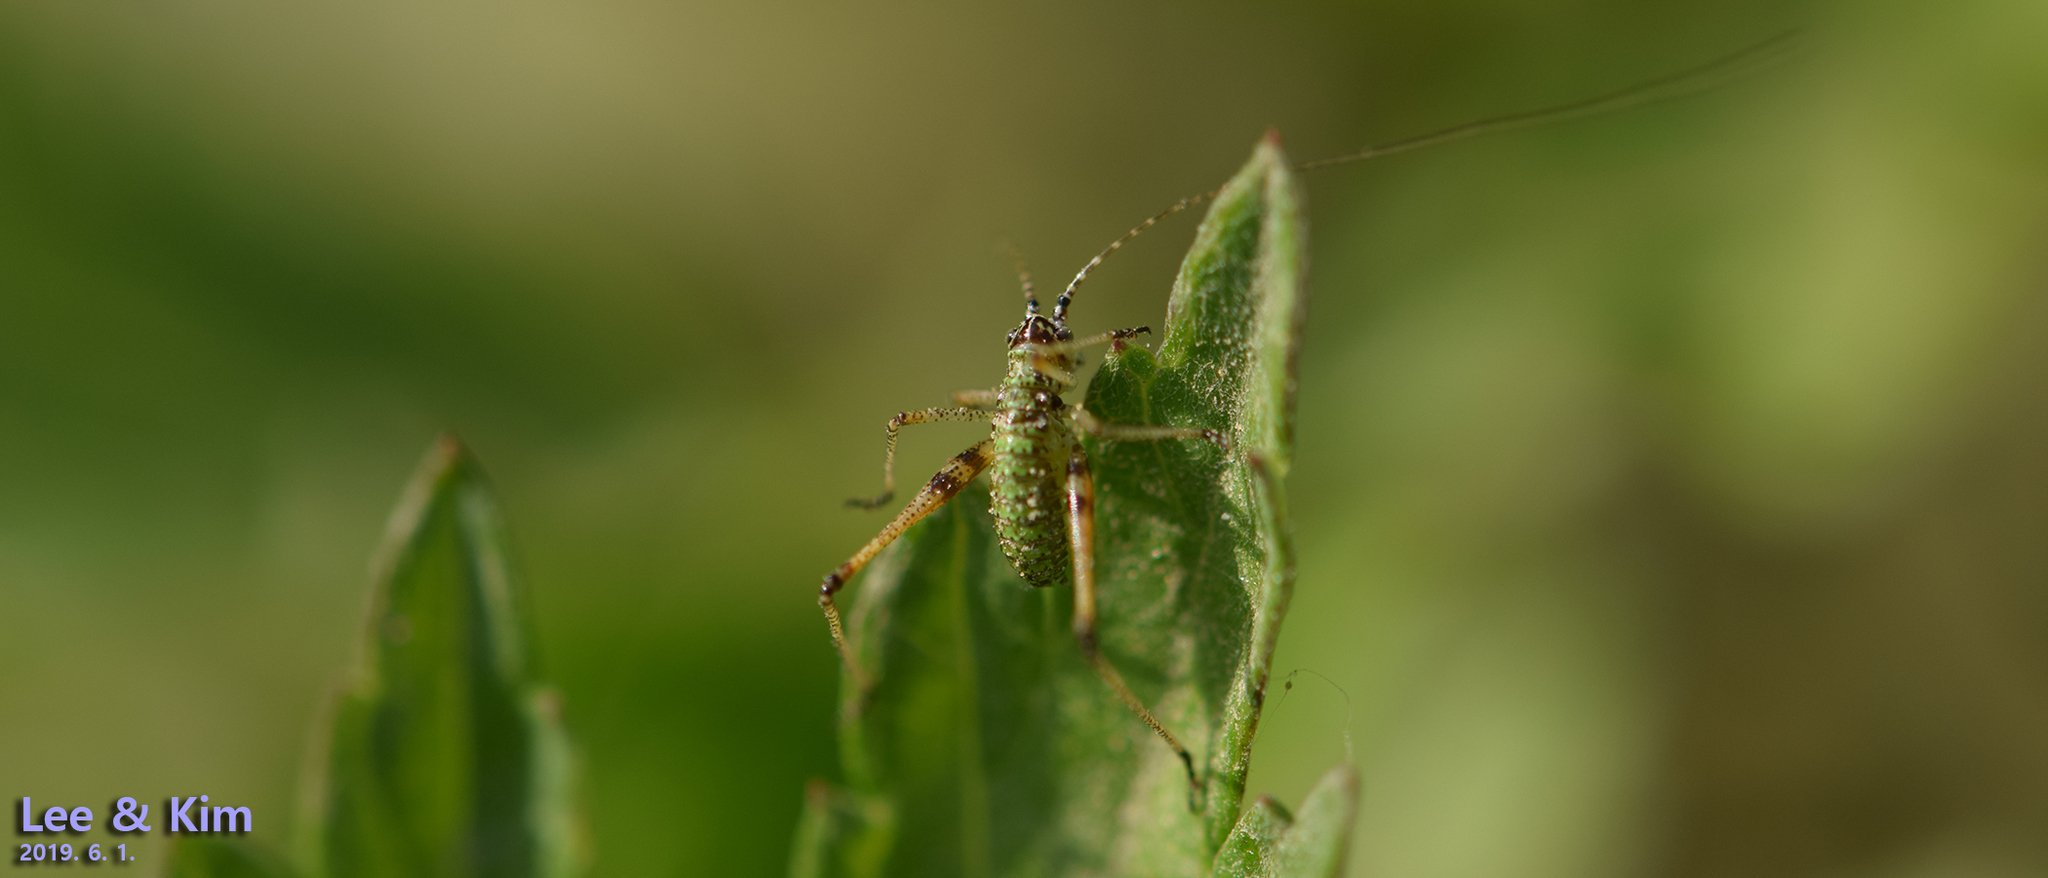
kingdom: Animalia
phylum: Arthropoda
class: Insecta
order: Orthoptera
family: Tettigoniidae
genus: Phaneroptera
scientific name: Phaneroptera falcata
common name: Sickle-bearing bush-cricket
